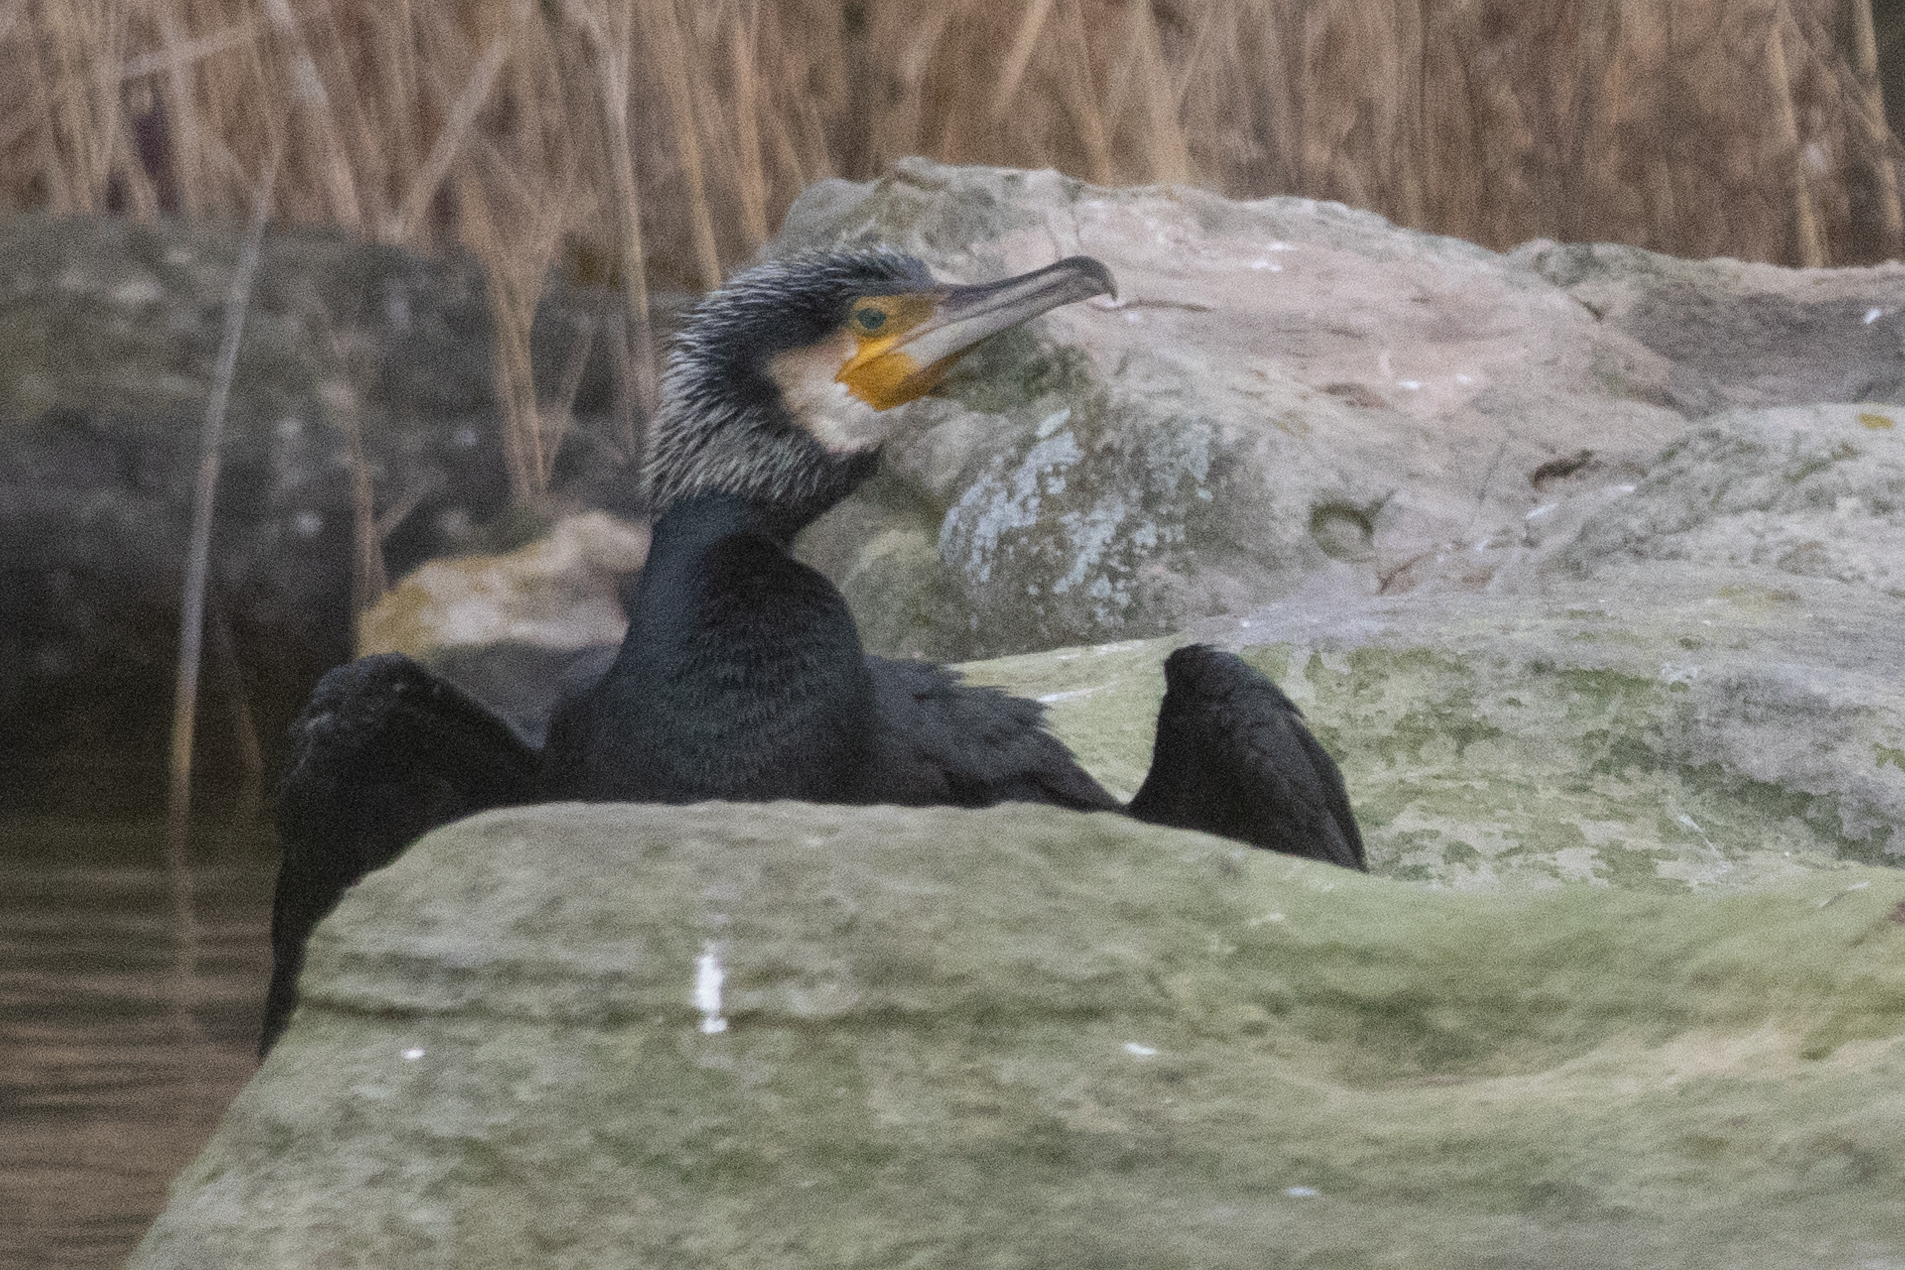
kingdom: Animalia
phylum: Chordata
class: Aves
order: Suliformes
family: Phalacrocoracidae
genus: Phalacrocorax
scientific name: Phalacrocorax carbo
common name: Great cormorant
